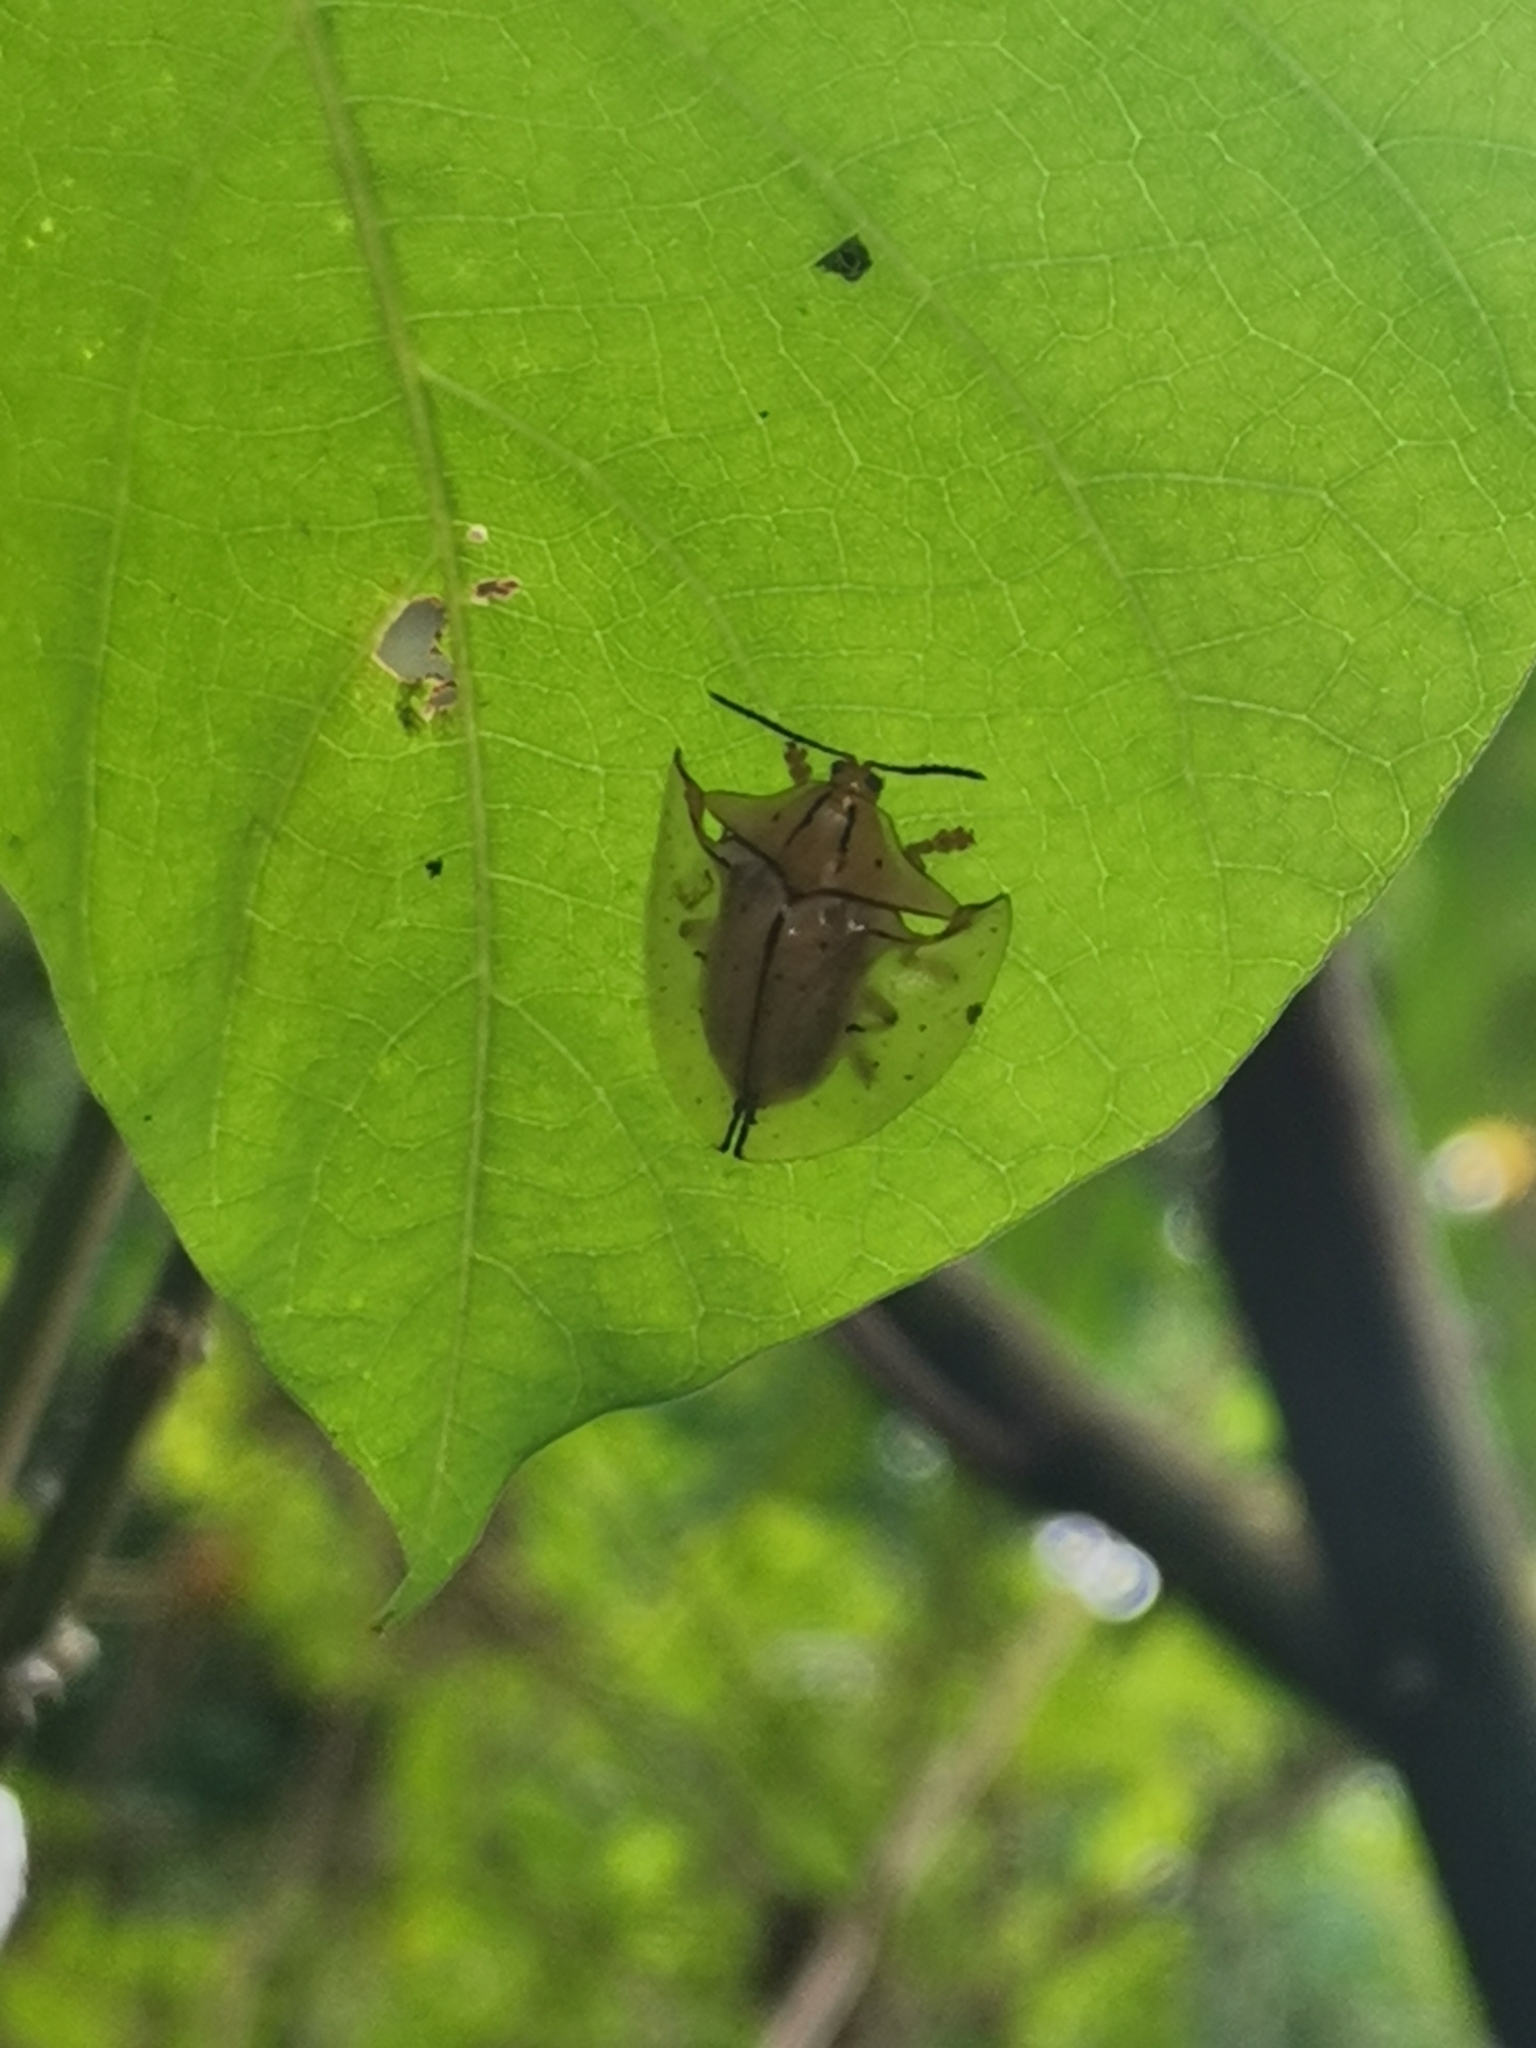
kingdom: Animalia
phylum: Arthropoda
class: Insecta
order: Coleoptera
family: Chrysomelidae
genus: Acromis
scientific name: Acromis sparsa
